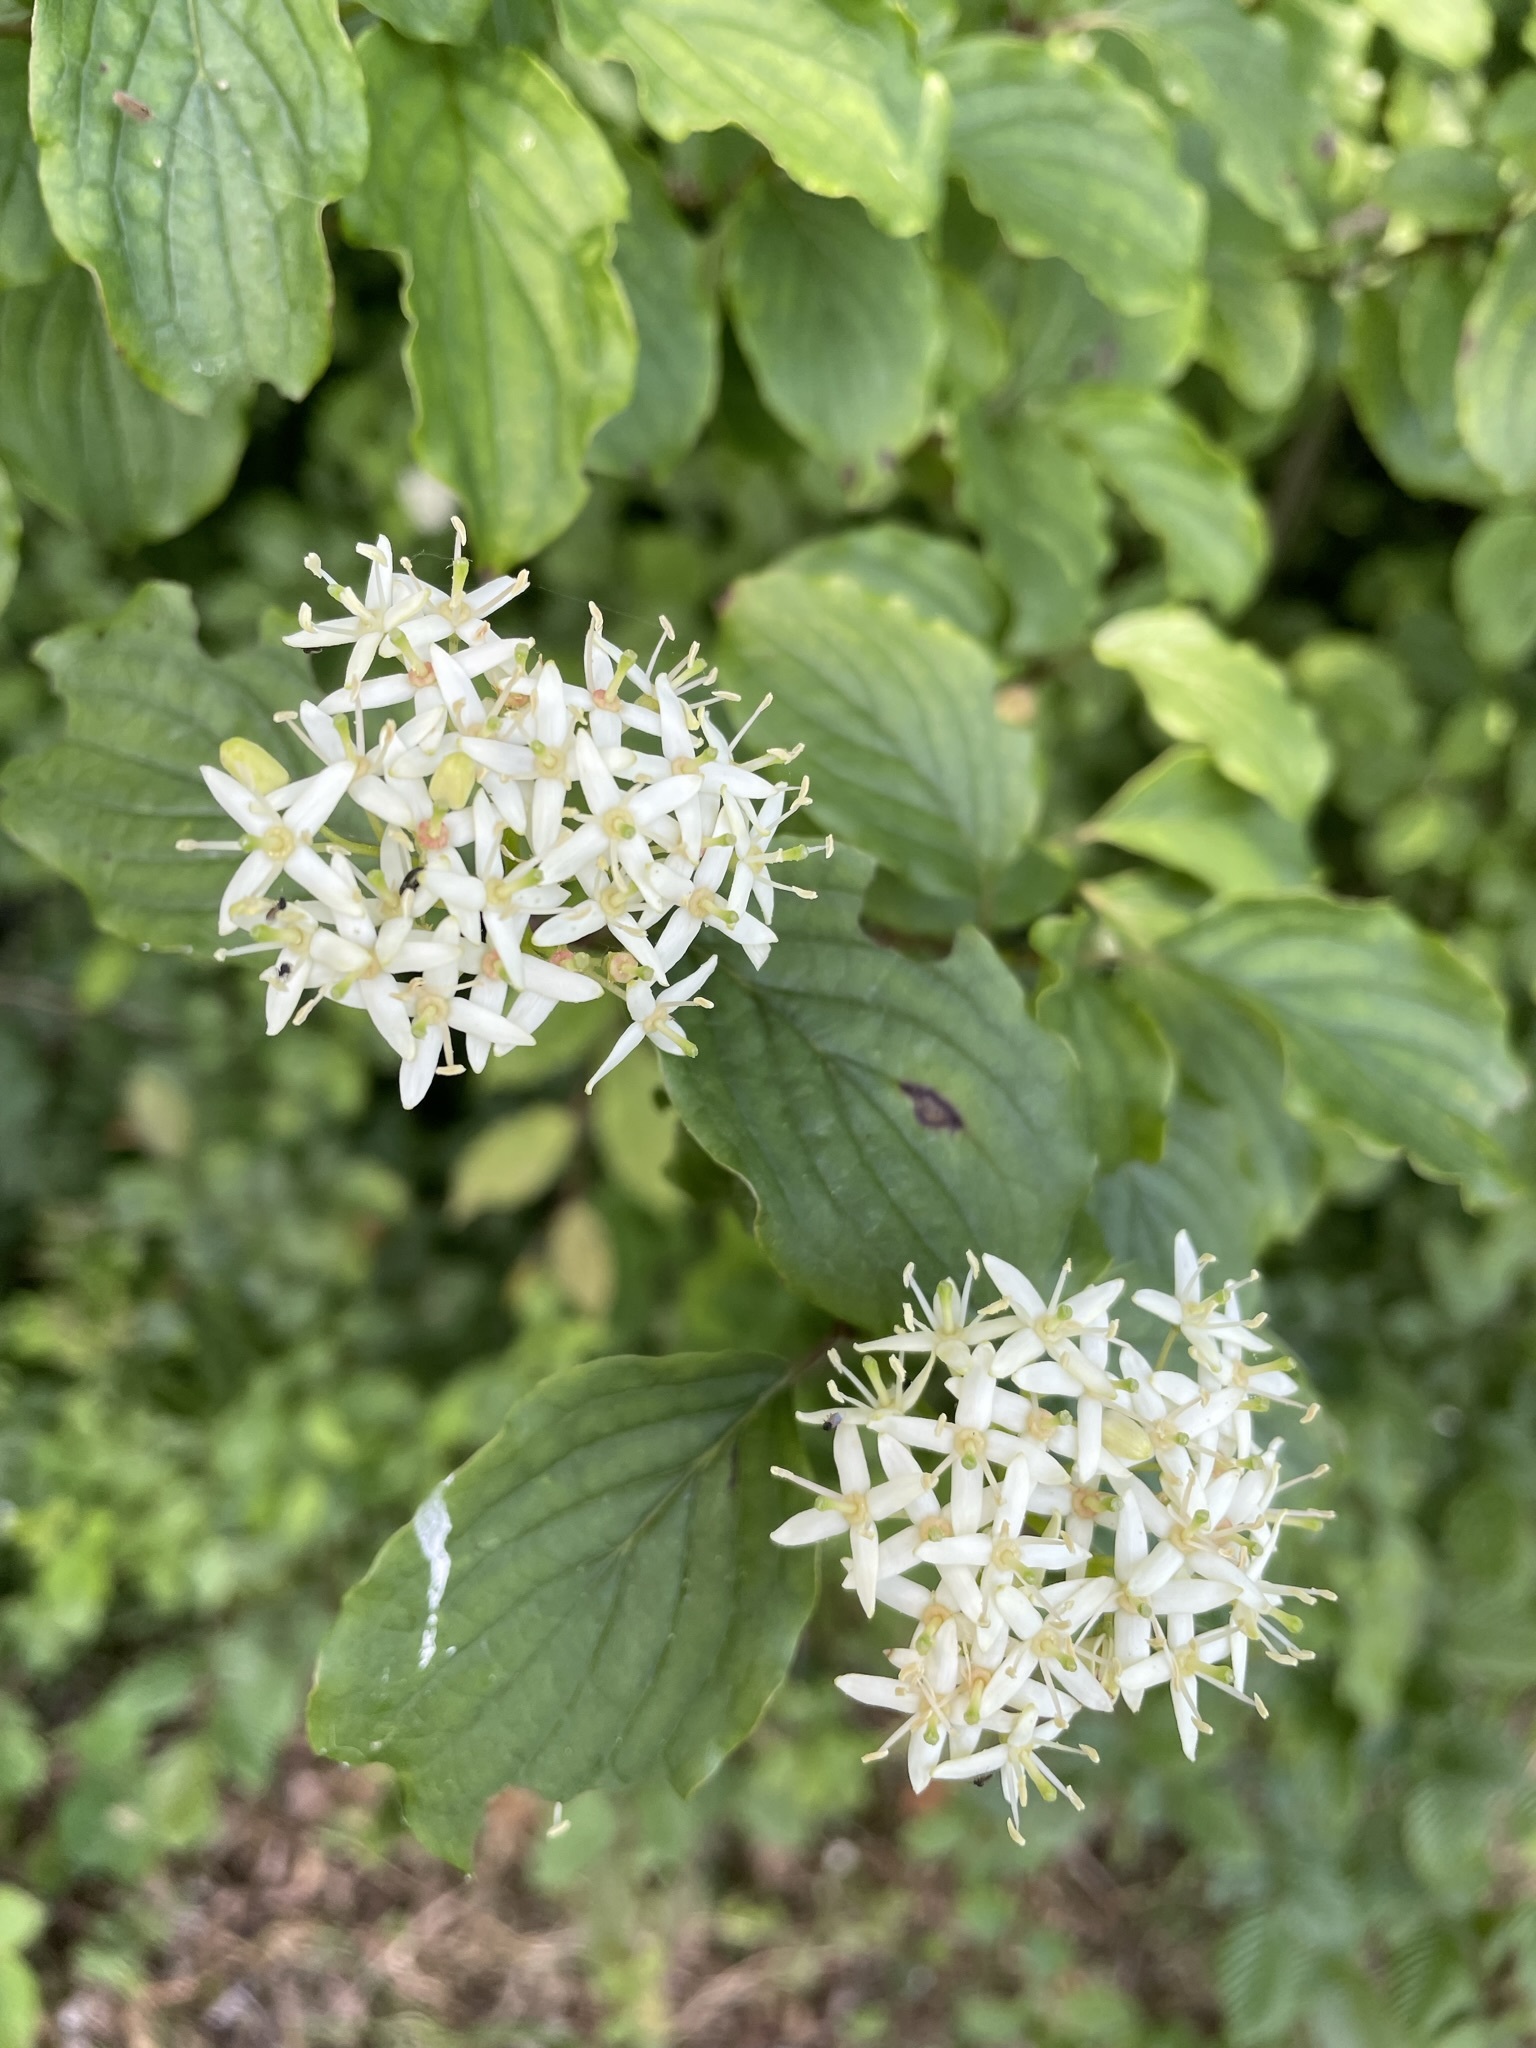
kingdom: Plantae
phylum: Tracheophyta
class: Magnoliopsida
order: Cornales
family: Cornaceae
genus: Cornus
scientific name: Cornus sanguinea
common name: Dogwood
